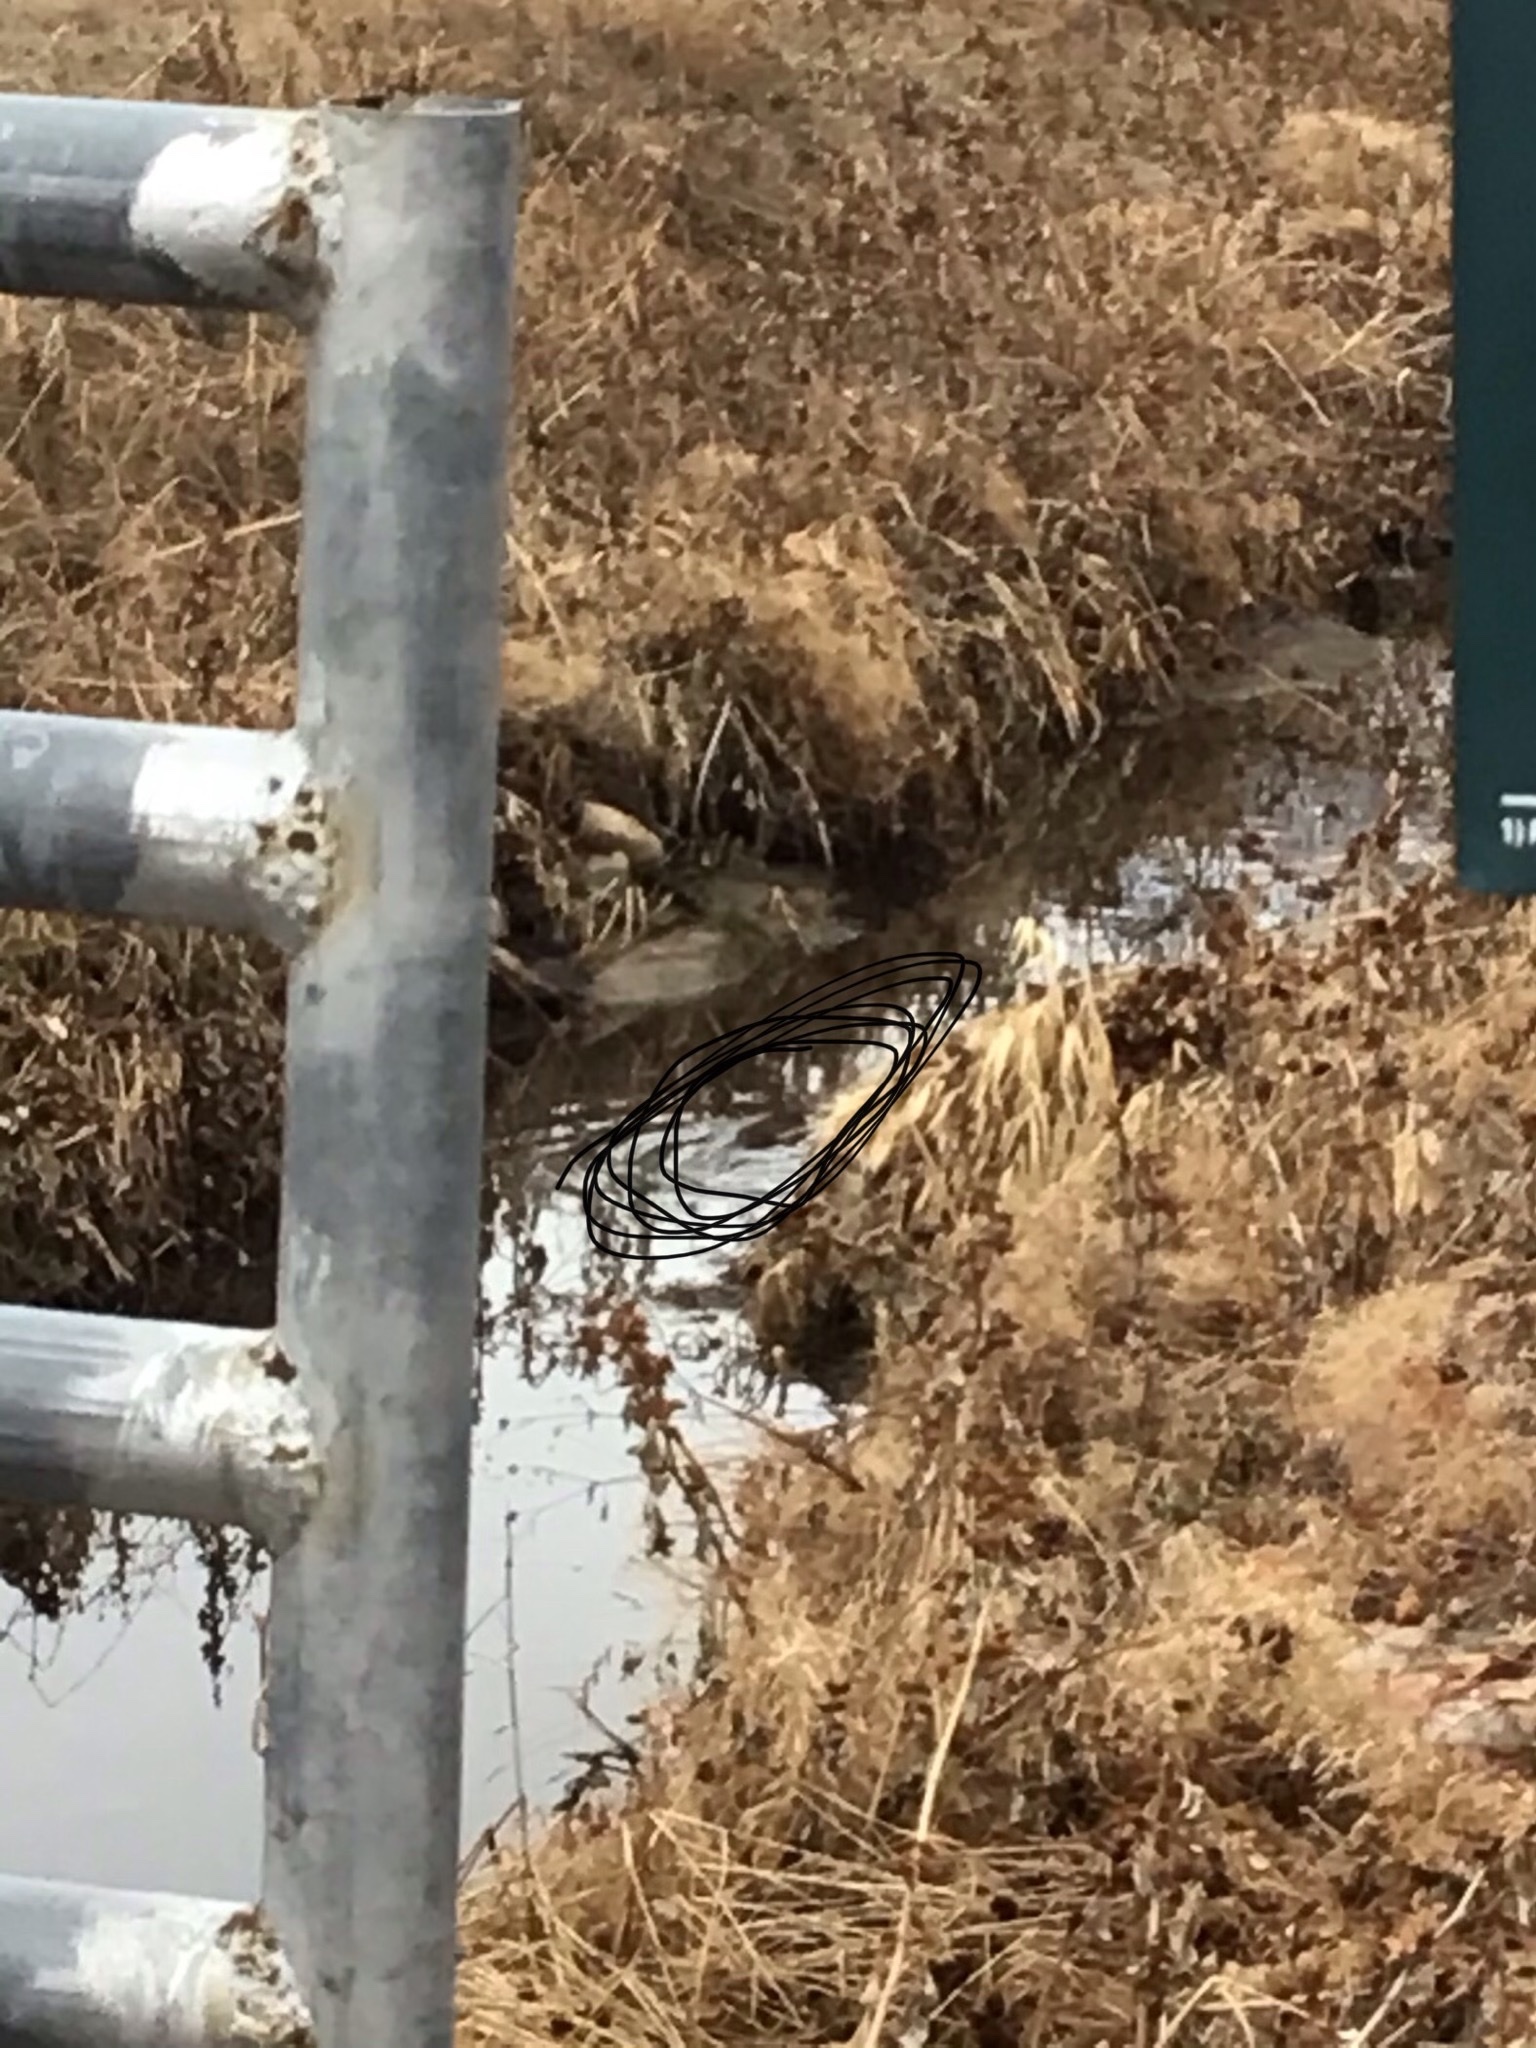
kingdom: Animalia
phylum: Chordata
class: Mammalia
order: Rodentia
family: Cricetidae
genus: Ondatra
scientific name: Ondatra zibethicus
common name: Muskrat
